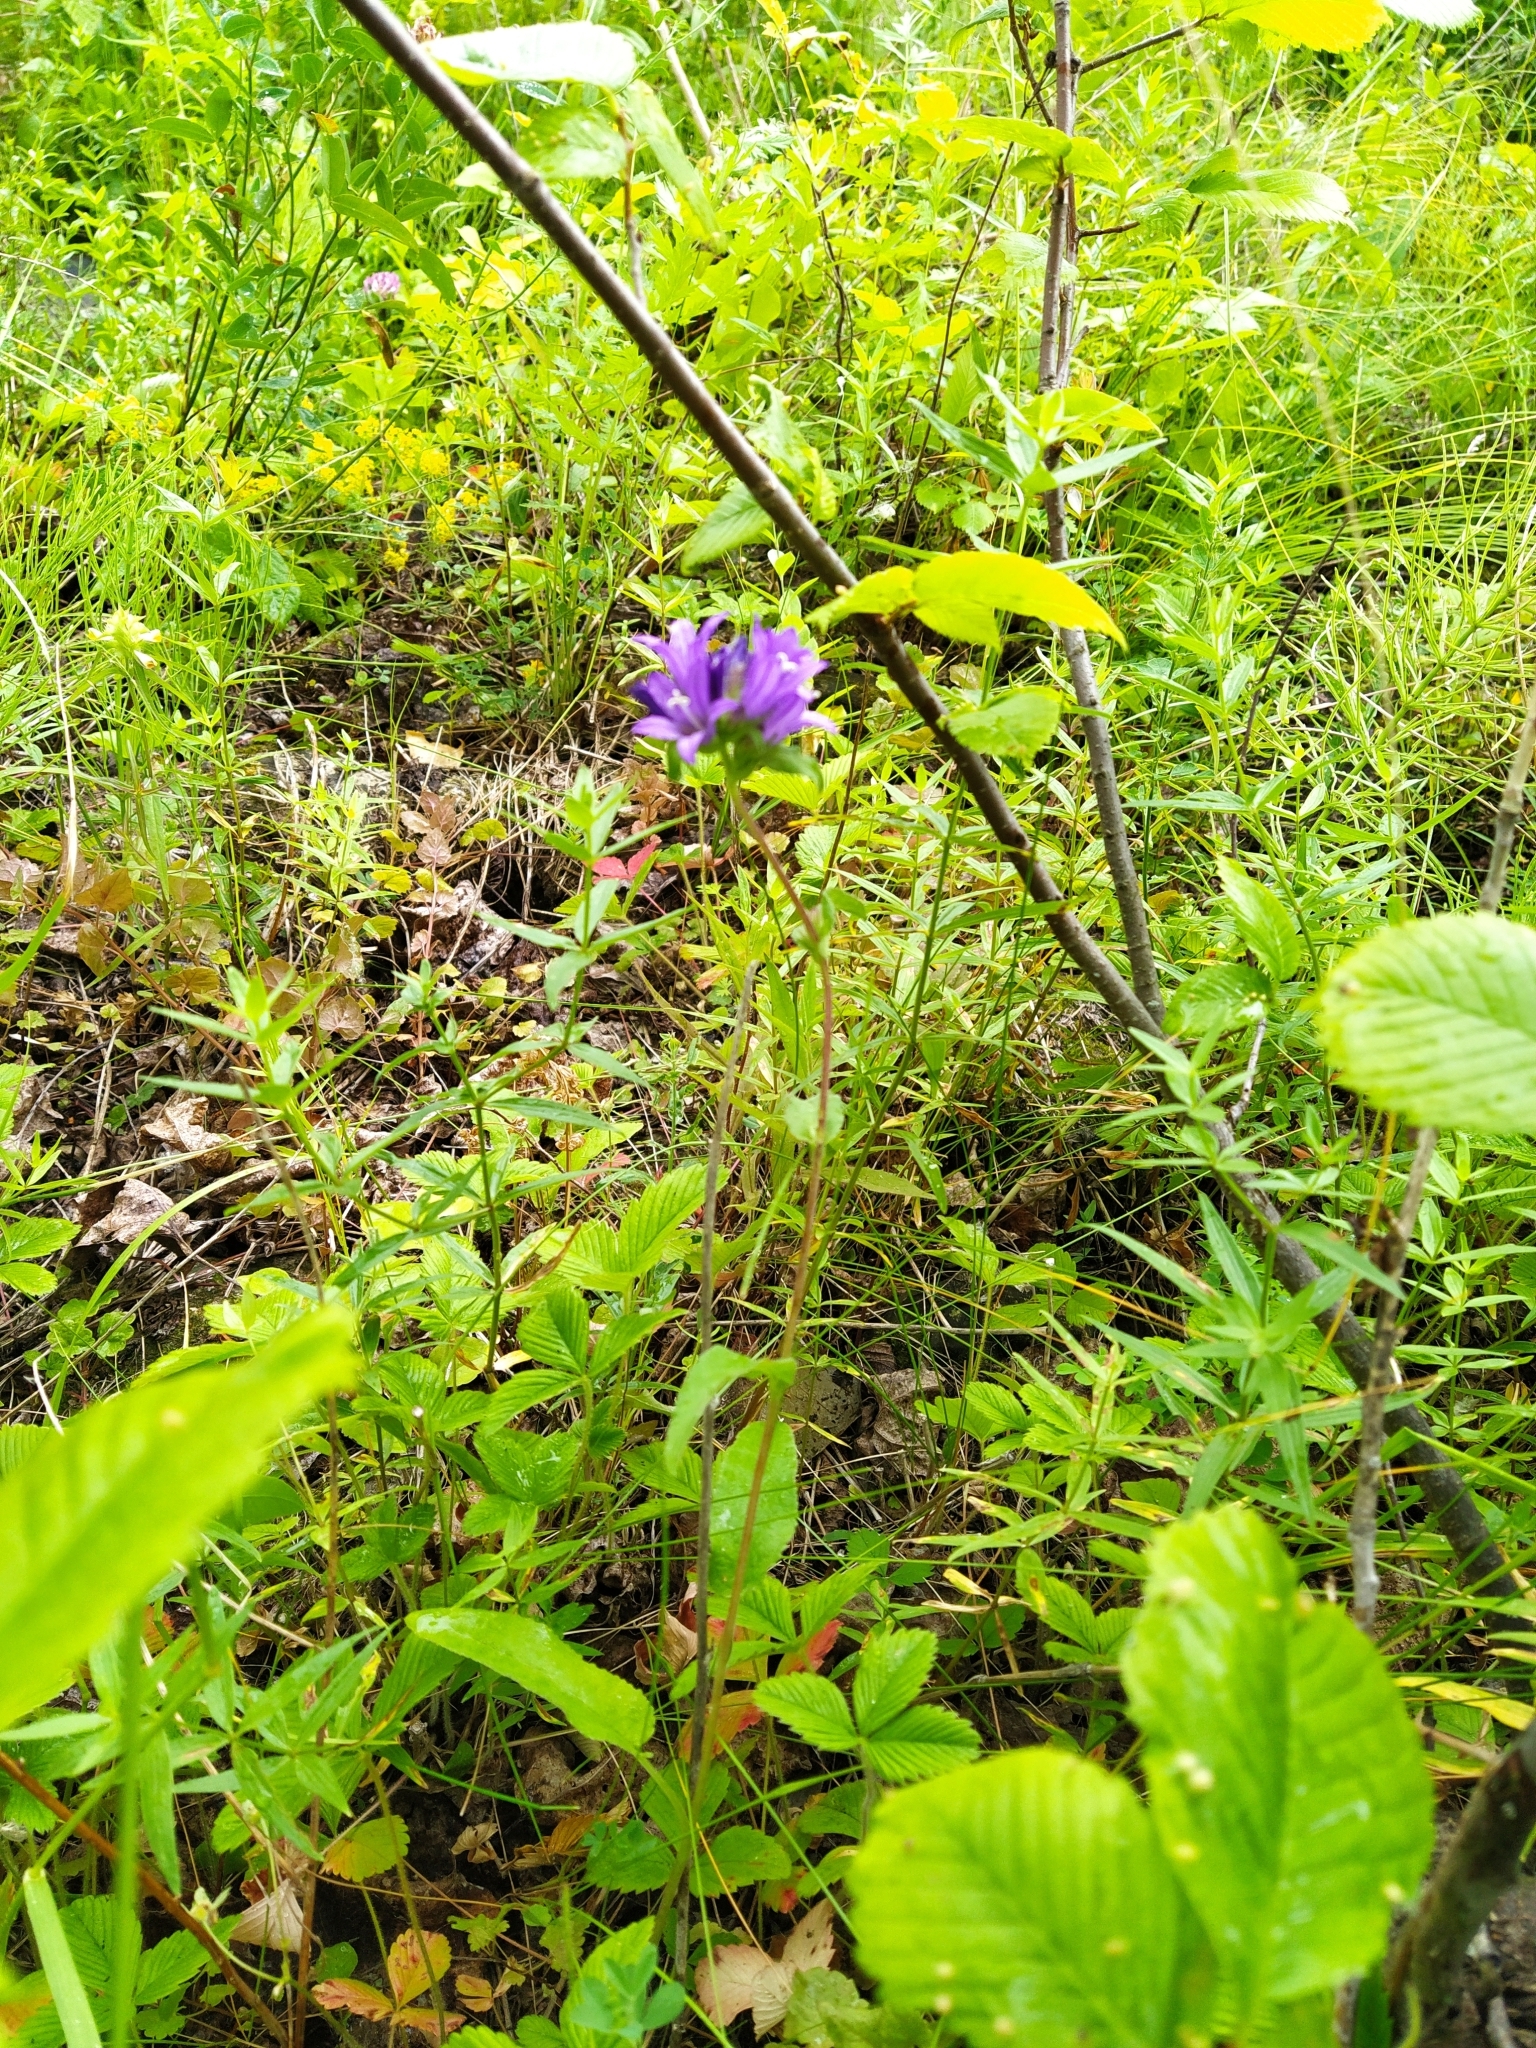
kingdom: Plantae
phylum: Tracheophyta
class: Magnoliopsida
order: Asterales
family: Campanulaceae
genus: Campanula
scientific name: Campanula glomerata
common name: Clustered bellflower
